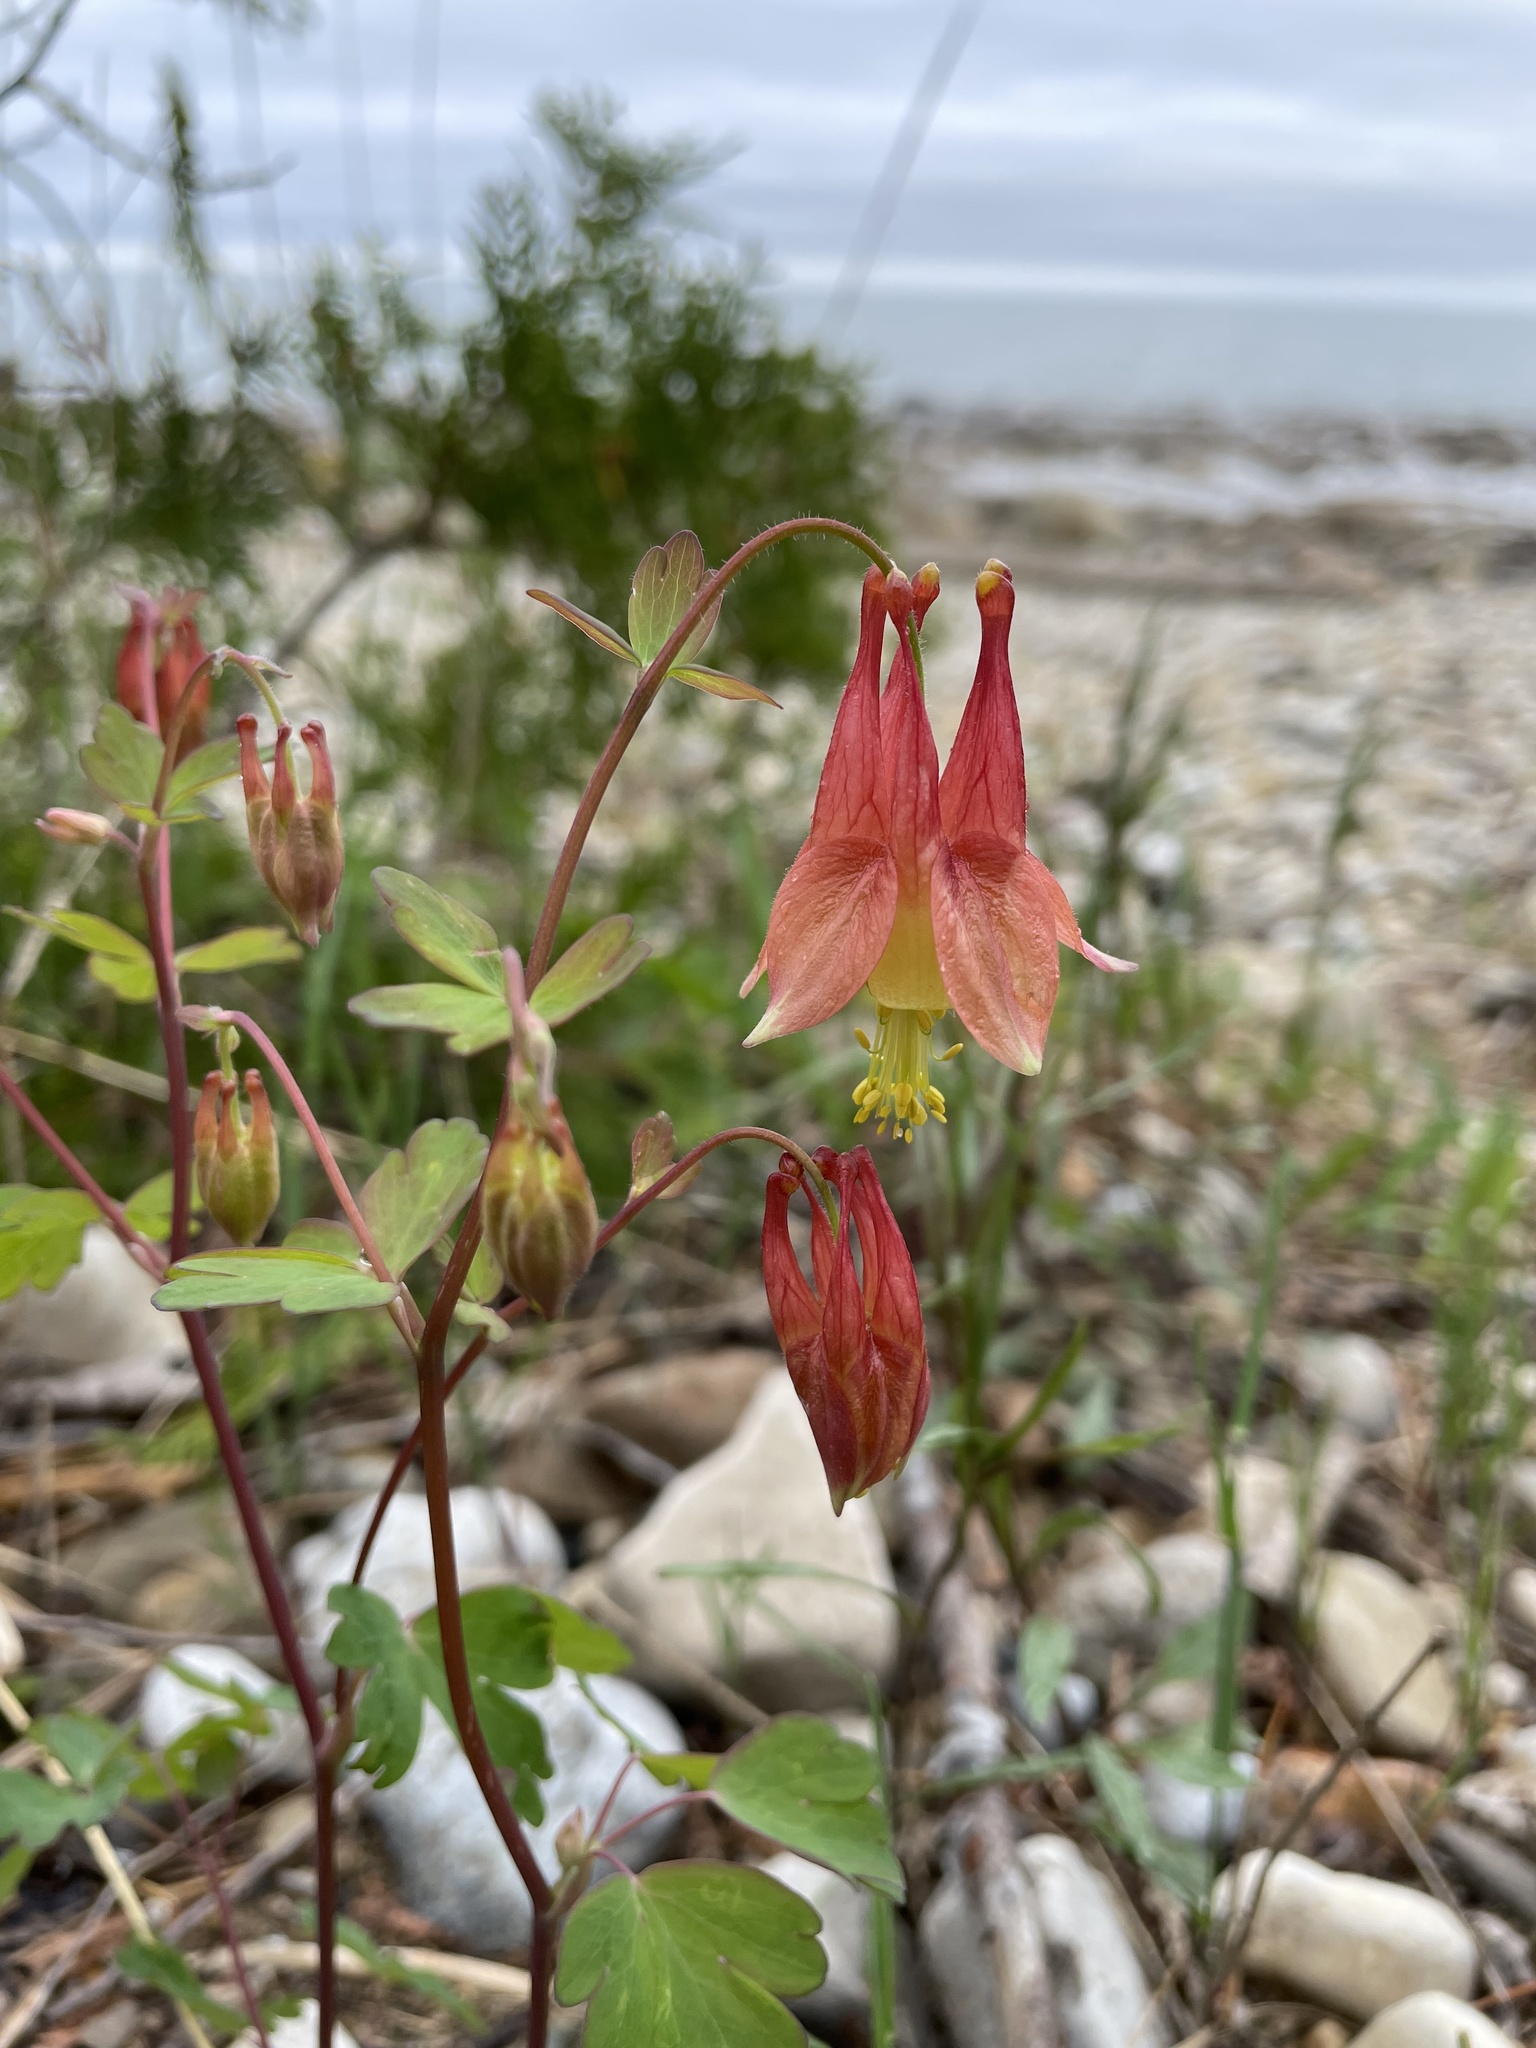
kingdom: Plantae
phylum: Tracheophyta
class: Magnoliopsida
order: Ranunculales
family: Ranunculaceae
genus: Aquilegia
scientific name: Aquilegia canadensis
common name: American columbine
